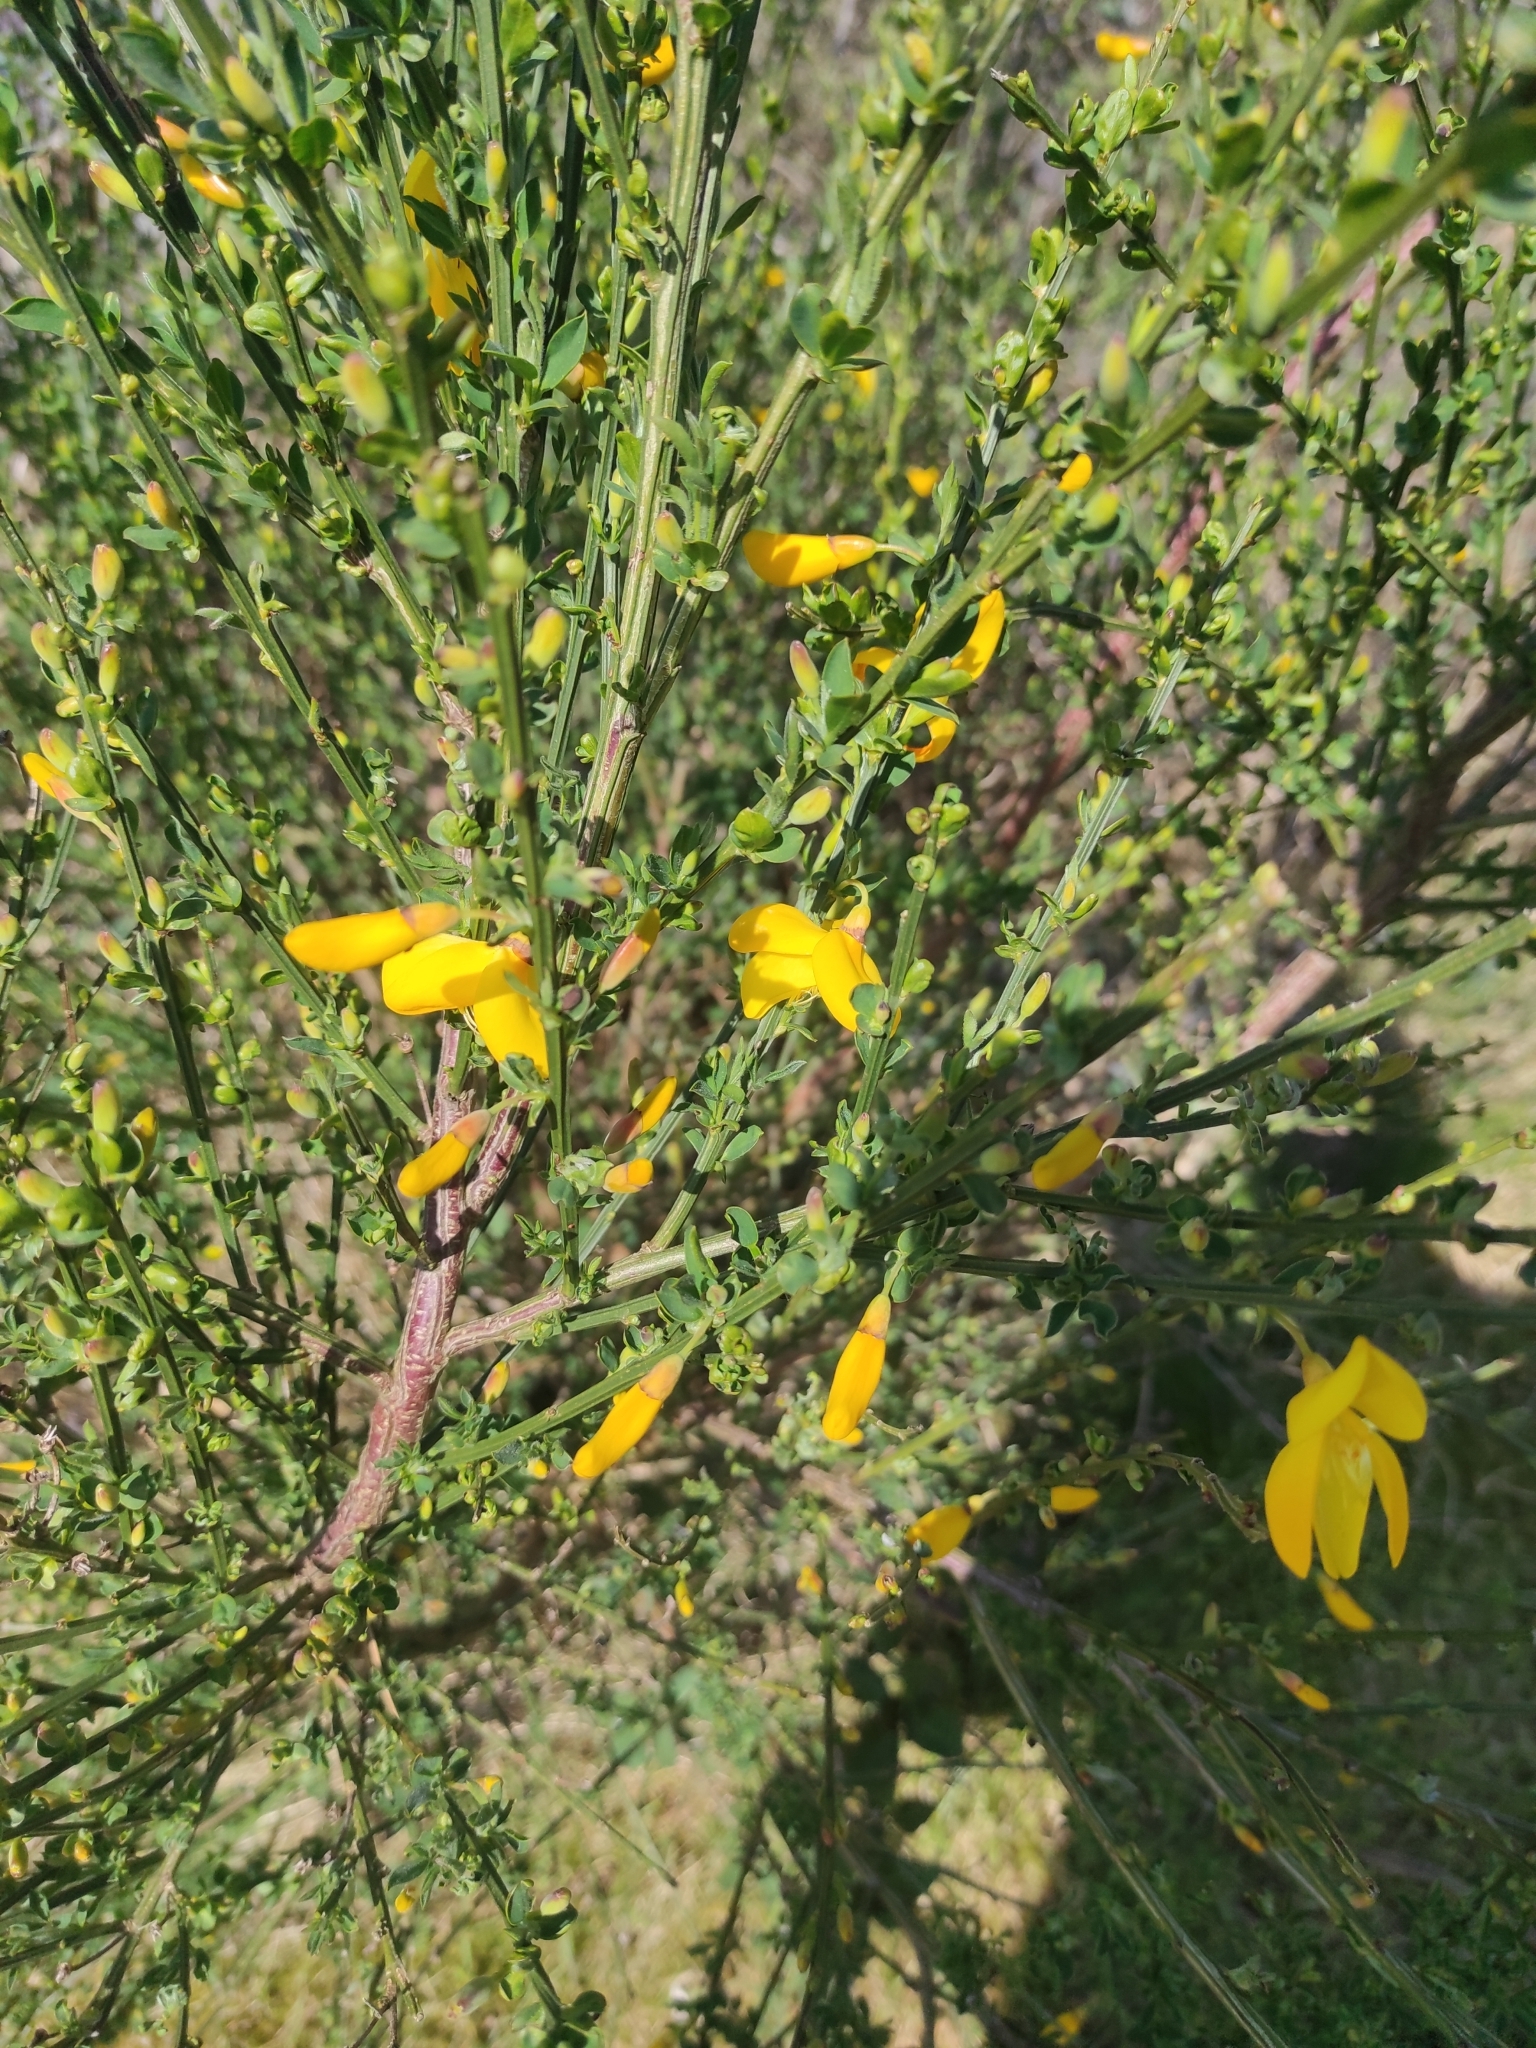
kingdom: Plantae
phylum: Tracheophyta
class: Magnoliopsida
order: Fabales
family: Fabaceae
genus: Cytisus
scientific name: Cytisus scoparius
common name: Scotch broom
